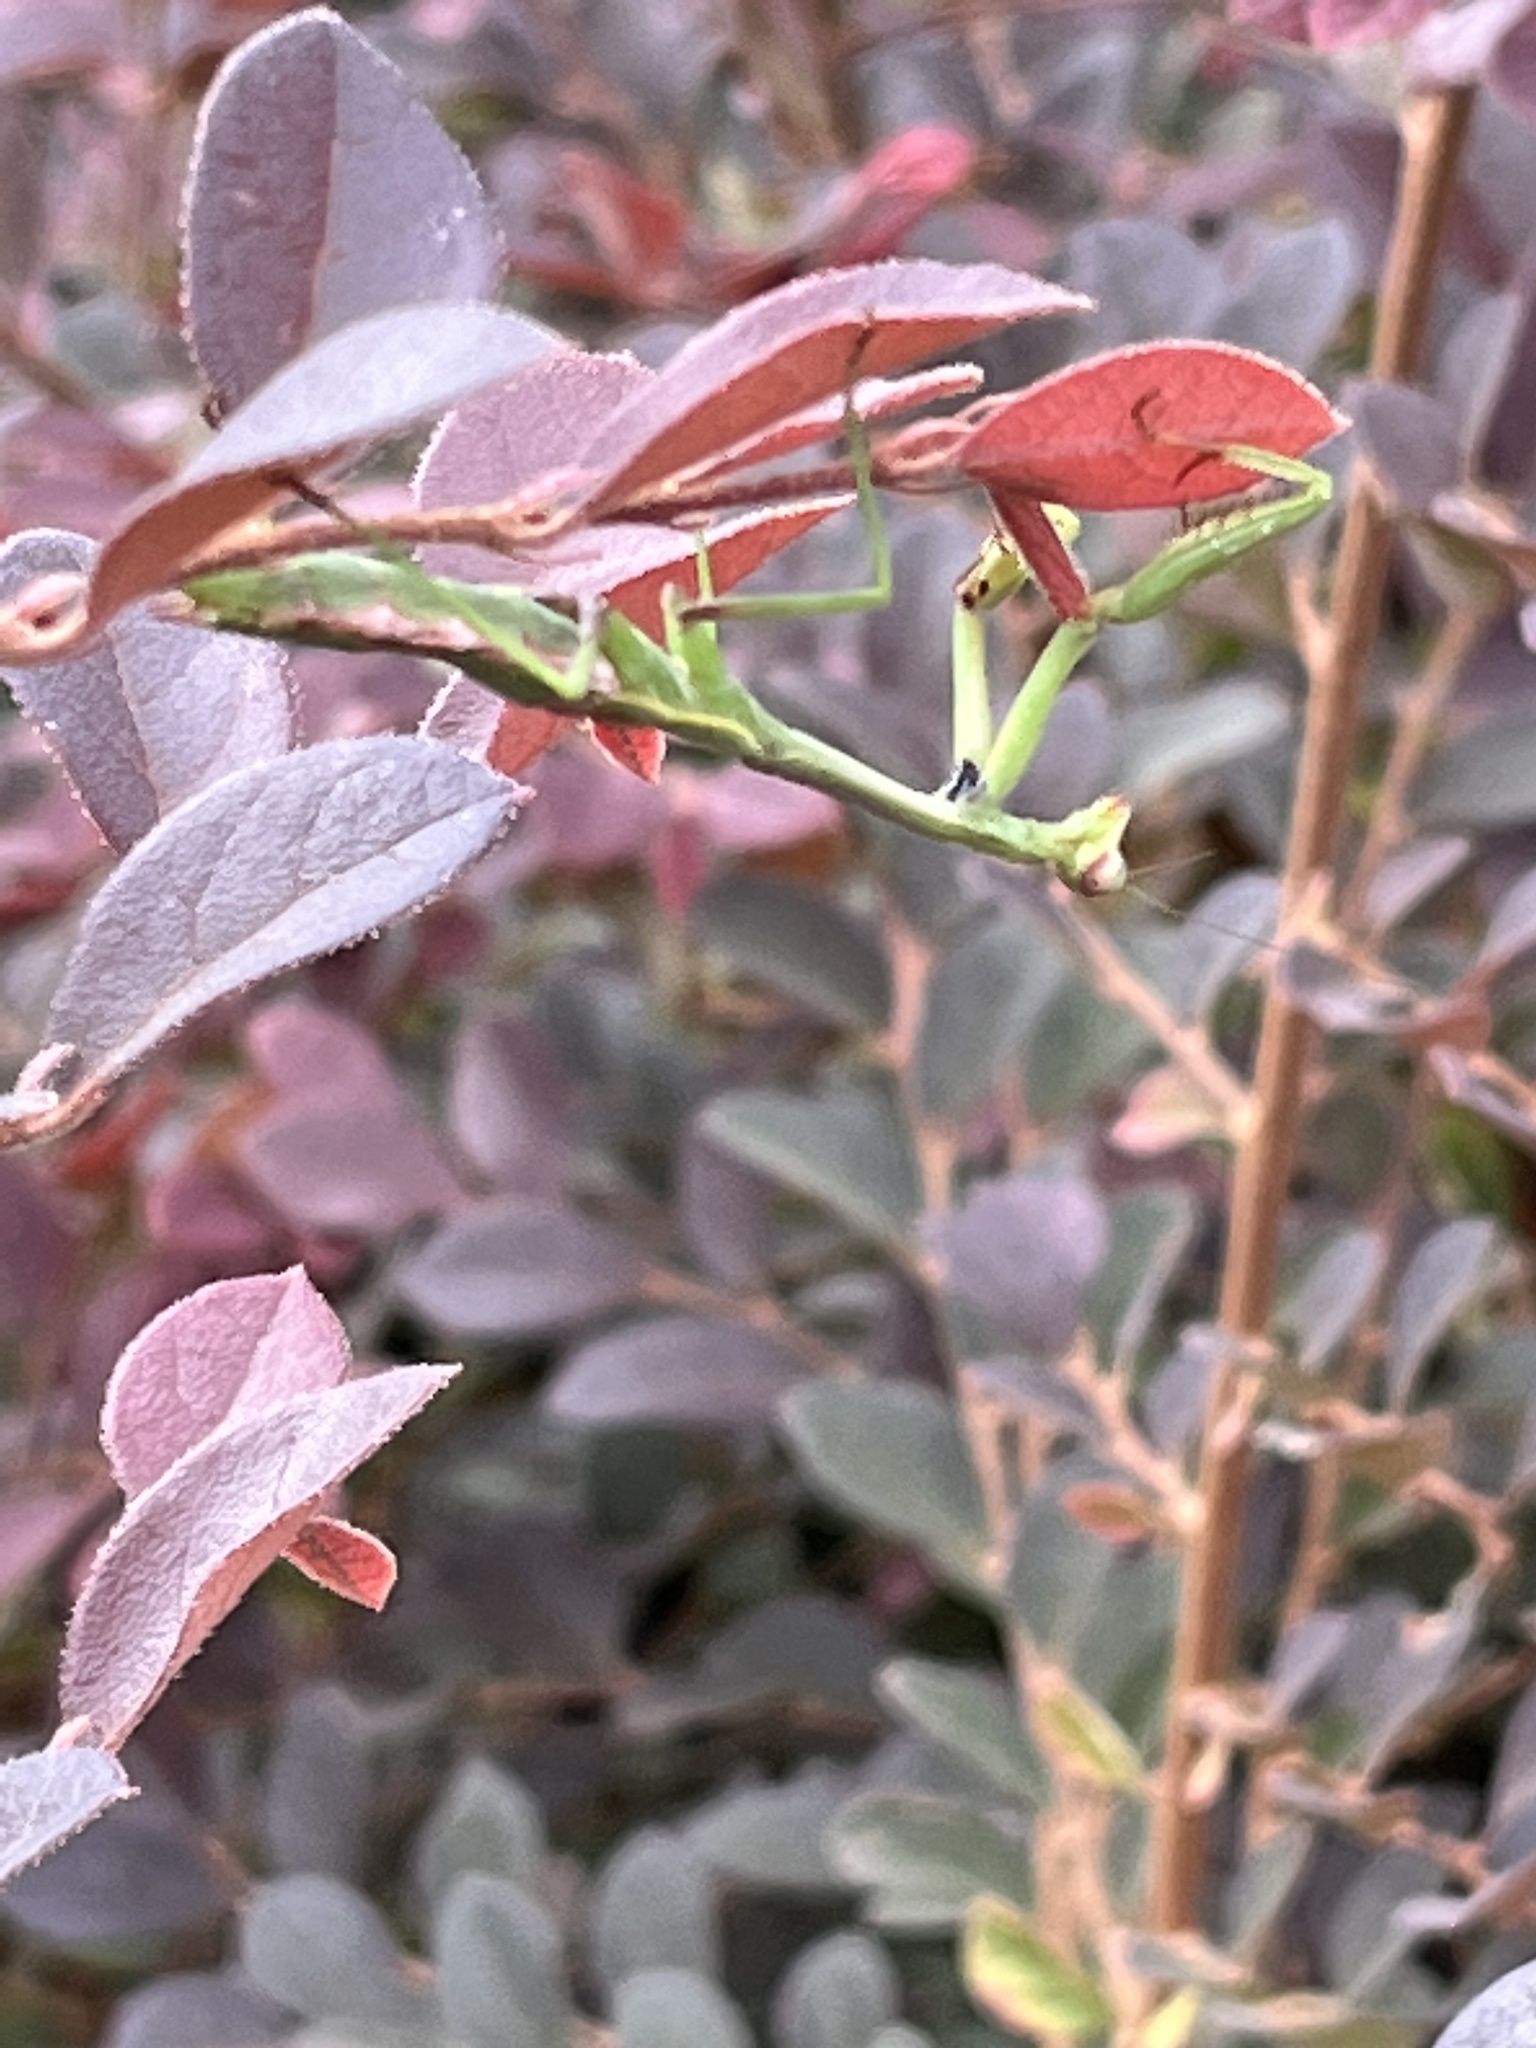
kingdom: Animalia
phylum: Arthropoda
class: Insecta
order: Mantodea
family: Mantidae
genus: Stagmomantis
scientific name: Stagmomantis carolina
